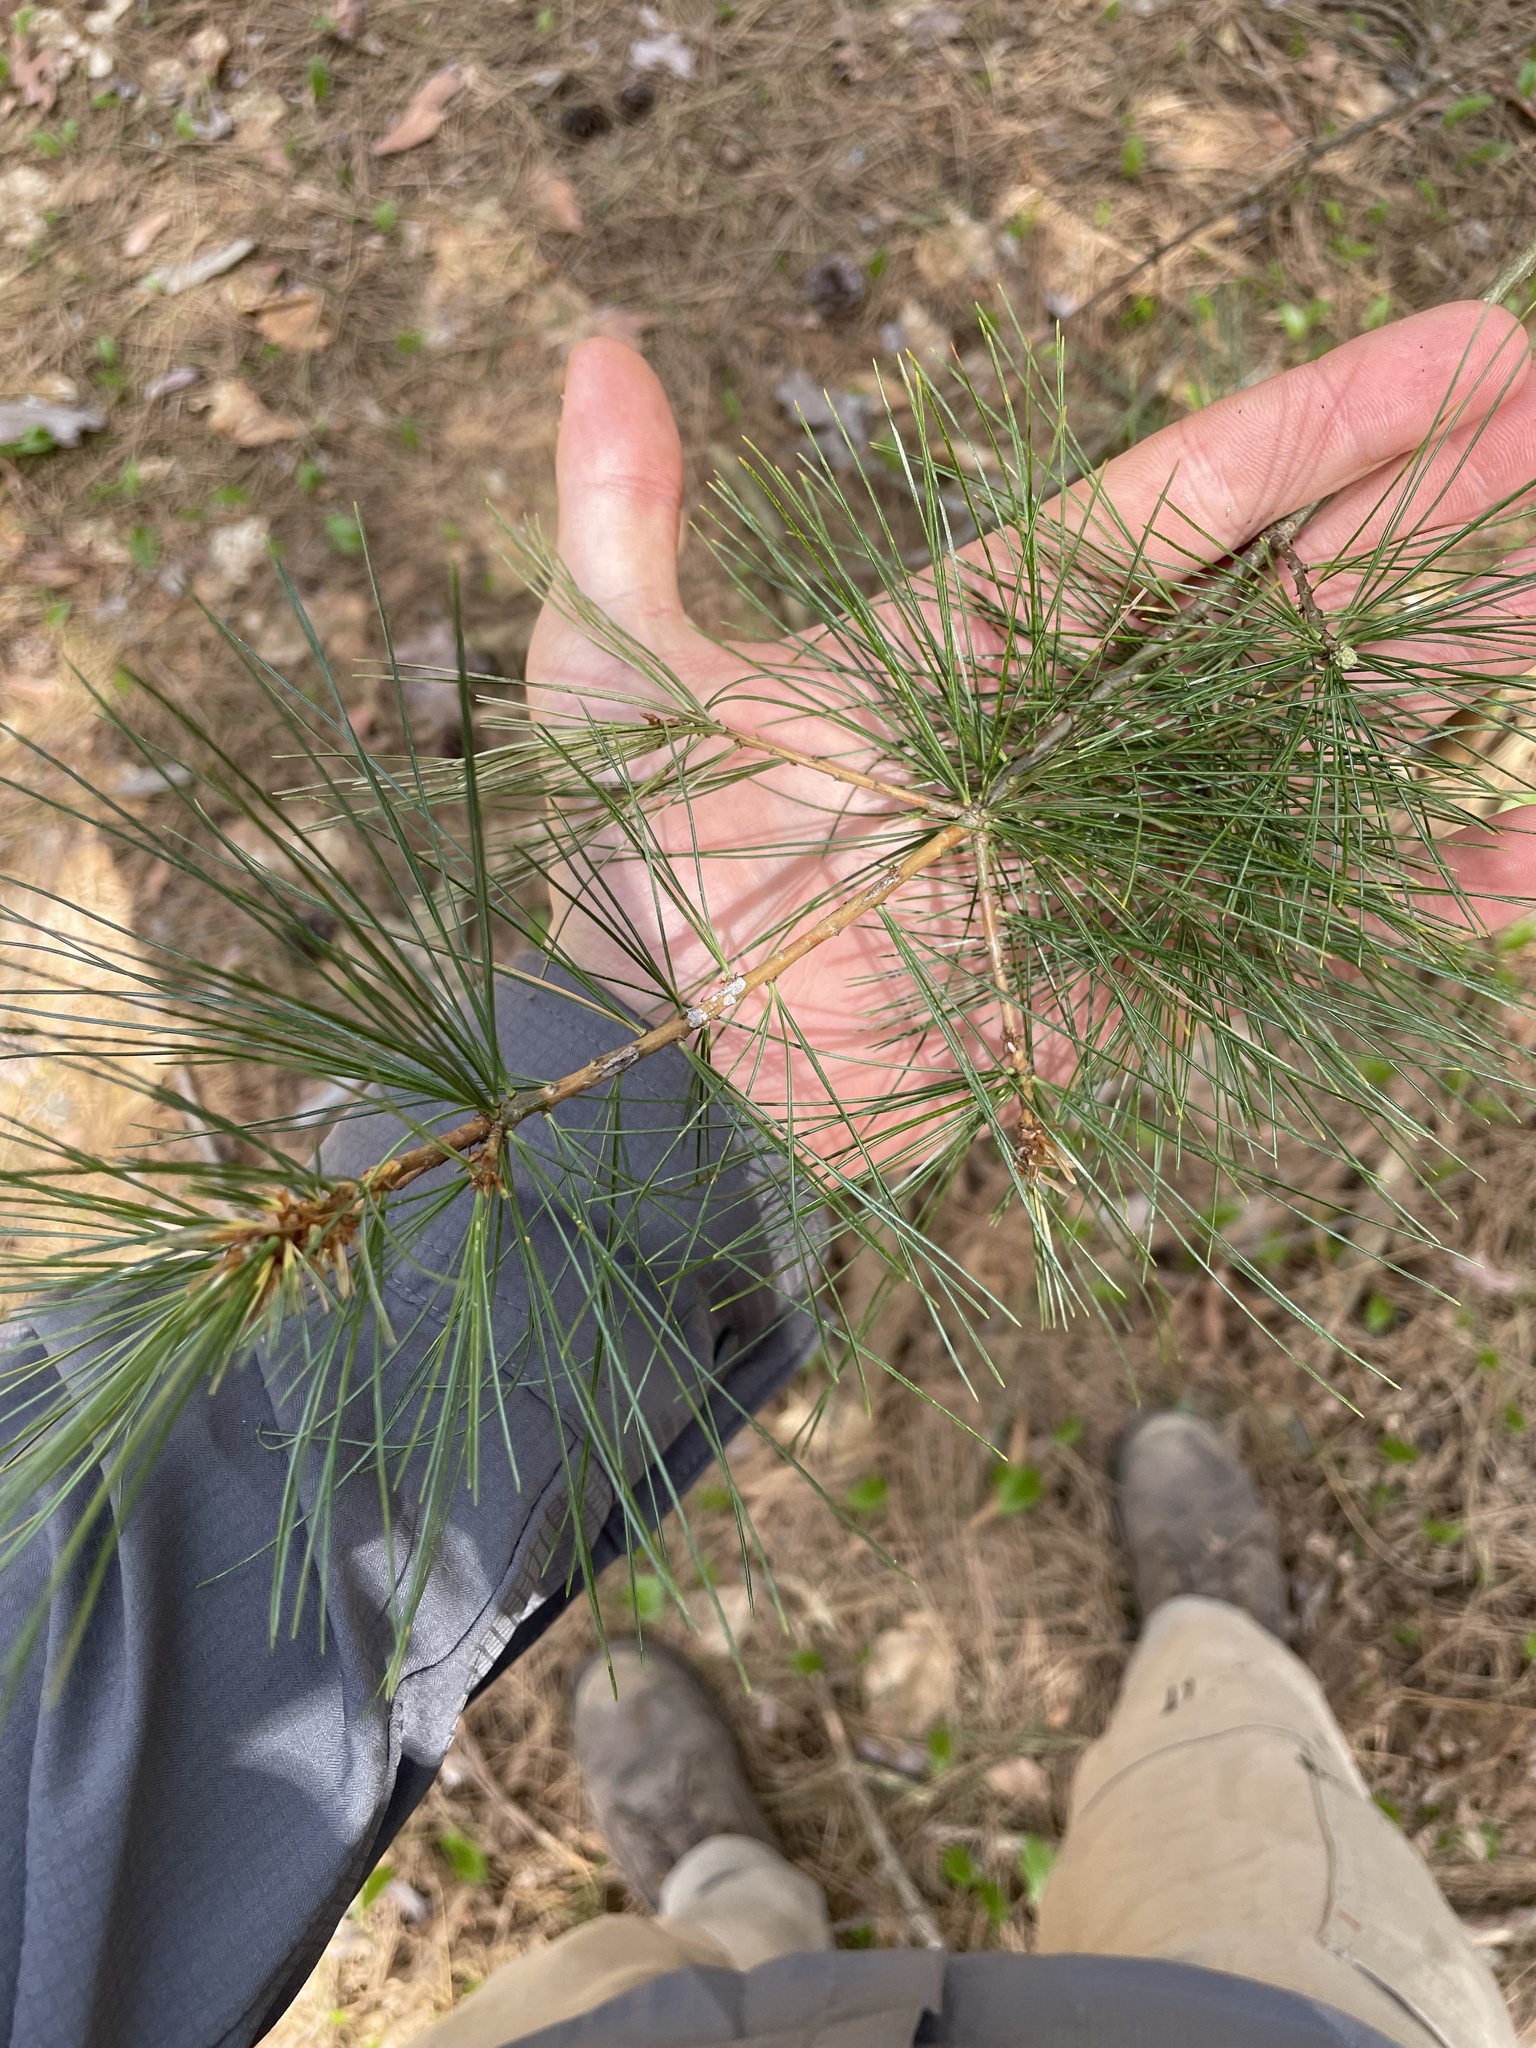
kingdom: Plantae
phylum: Tracheophyta
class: Pinopsida
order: Pinales
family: Pinaceae
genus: Pinus
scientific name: Pinus strobus
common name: Weymouth pine
